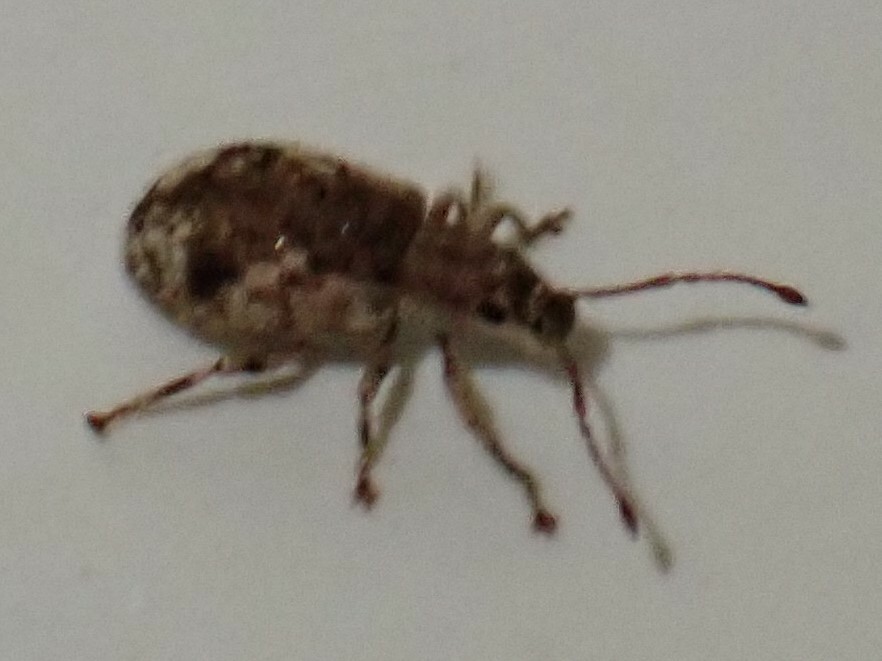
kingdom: Animalia
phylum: Arthropoda
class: Insecta
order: Coleoptera
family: Curculionidae
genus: Pseudoedophrys
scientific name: Pseudoedophrys hilleri
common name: Weevil
